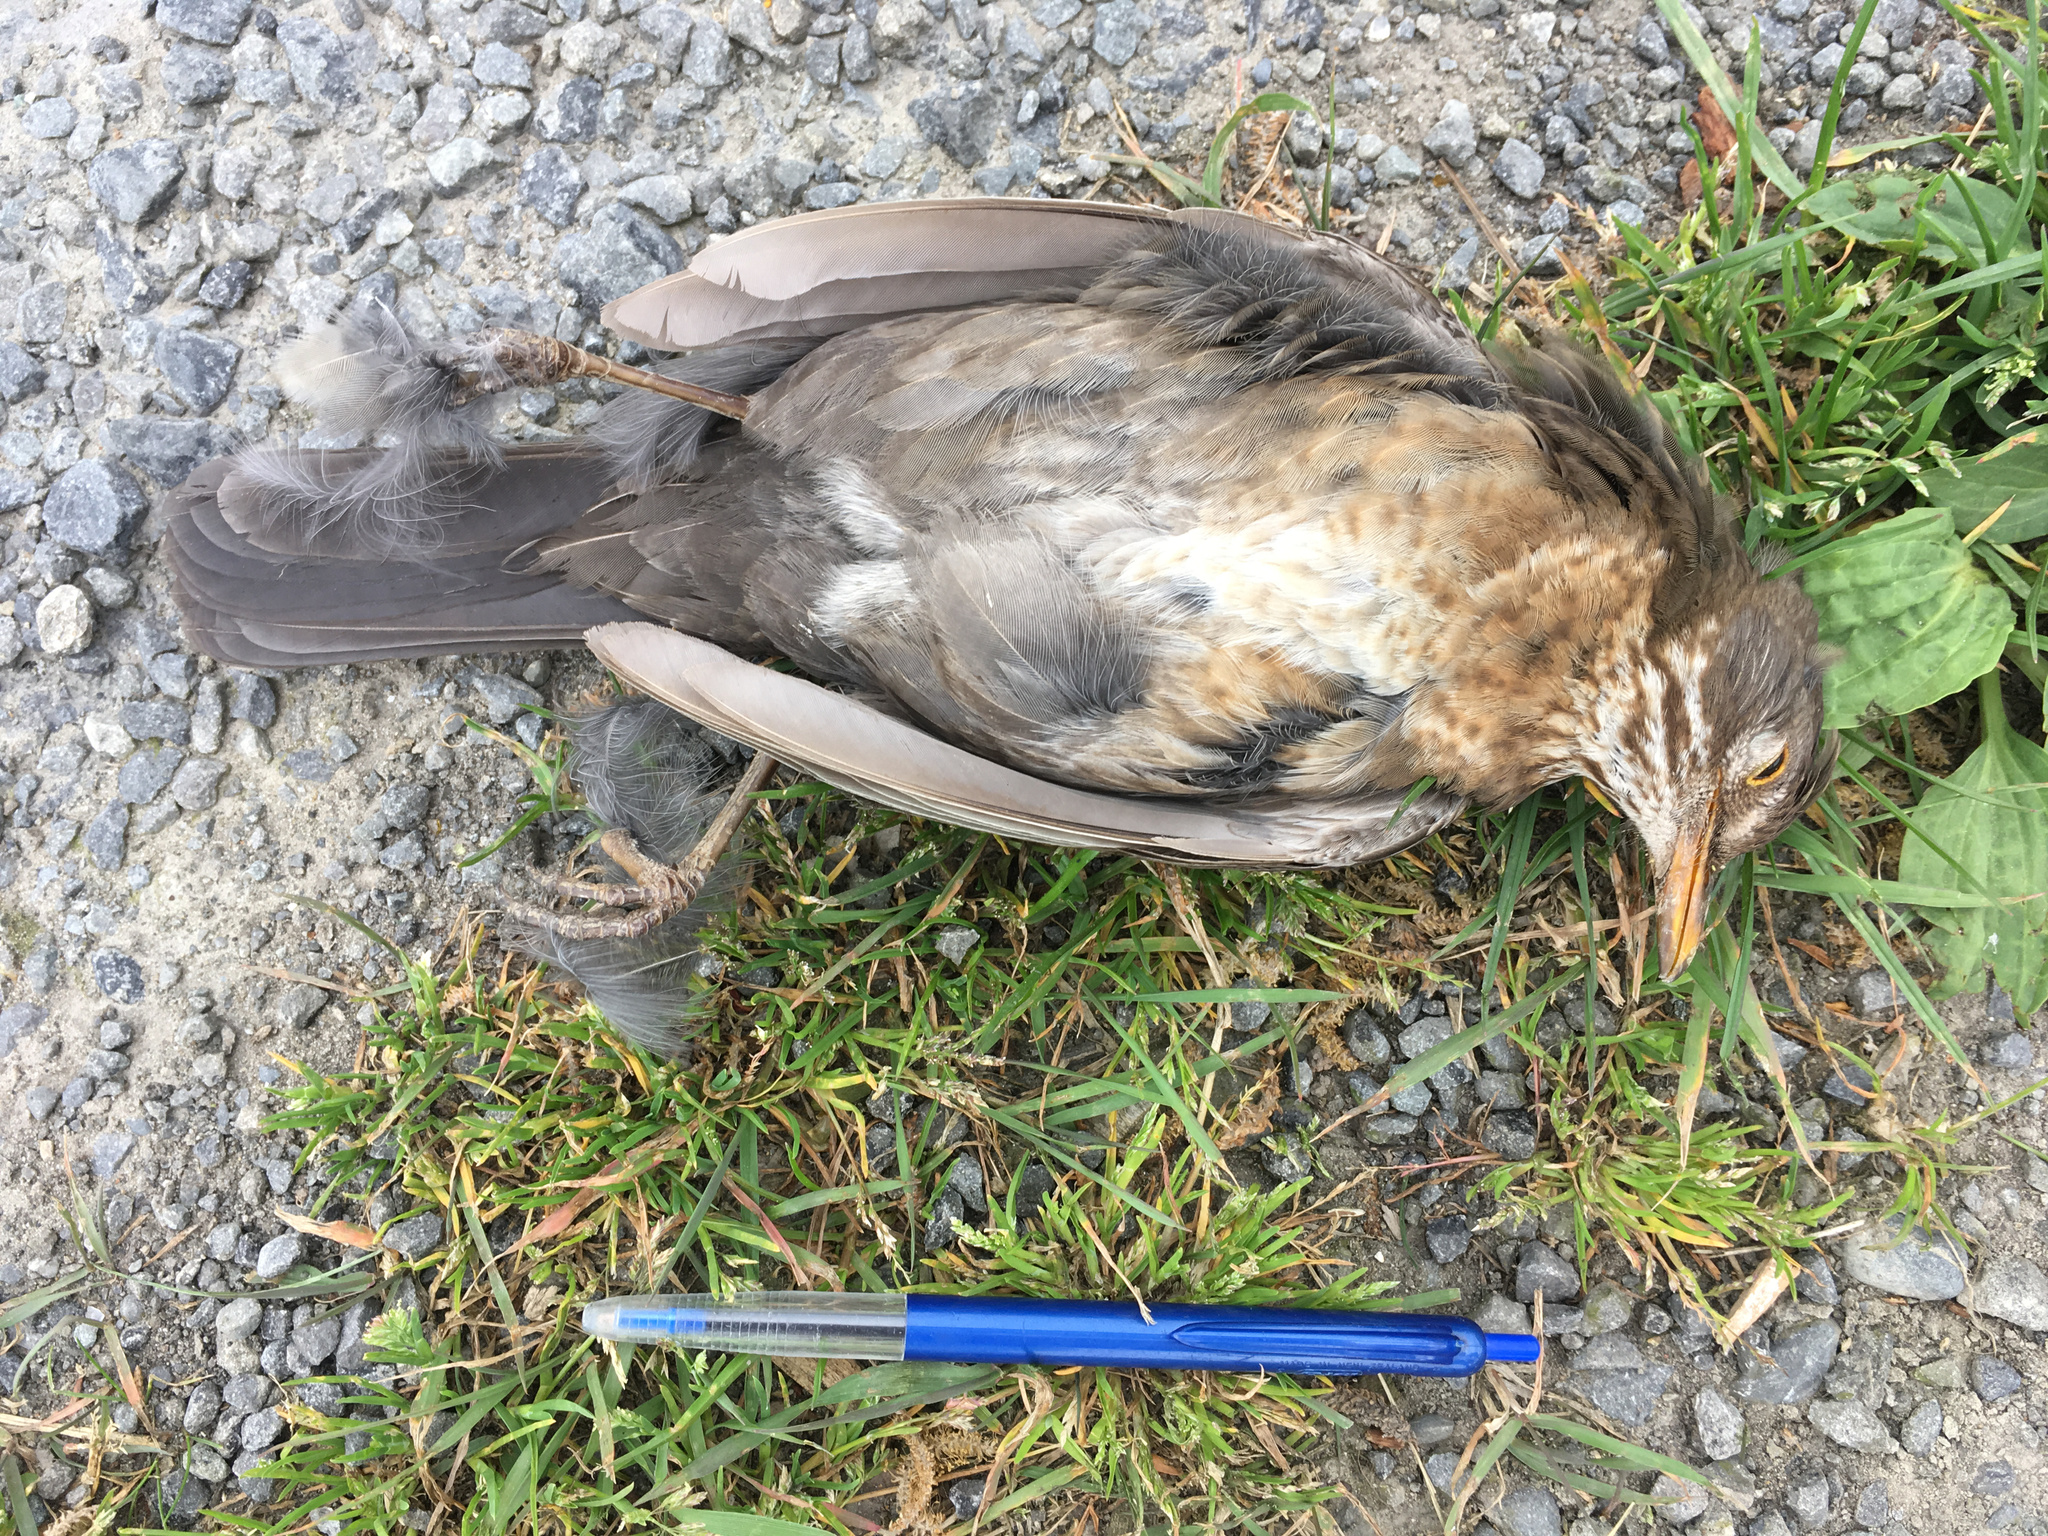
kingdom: Animalia
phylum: Chordata
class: Aves
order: Passeriformes
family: Turdidae
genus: Turdus
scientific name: Turdus merula
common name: Common blackbird
